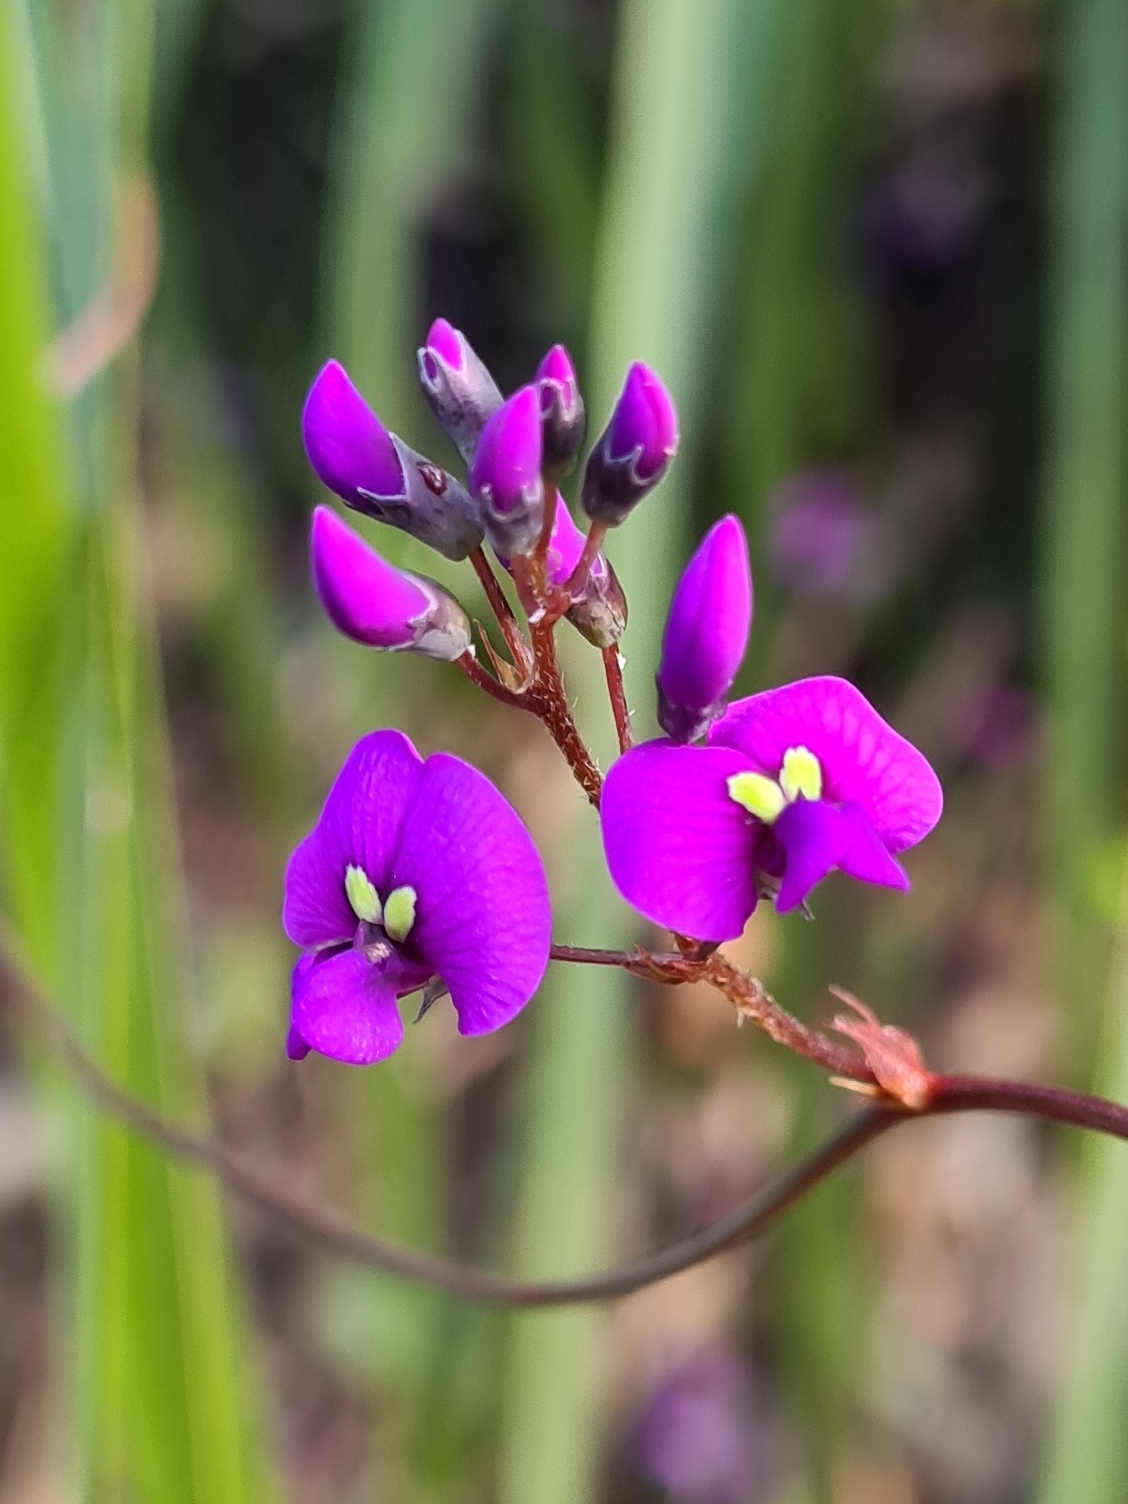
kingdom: Plantae
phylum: Tracheophyta
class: Magnoliopsida
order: Fabales
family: Fabaceae
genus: Hardenbergia
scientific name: Hardenbergia violacea
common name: Coral-pea
